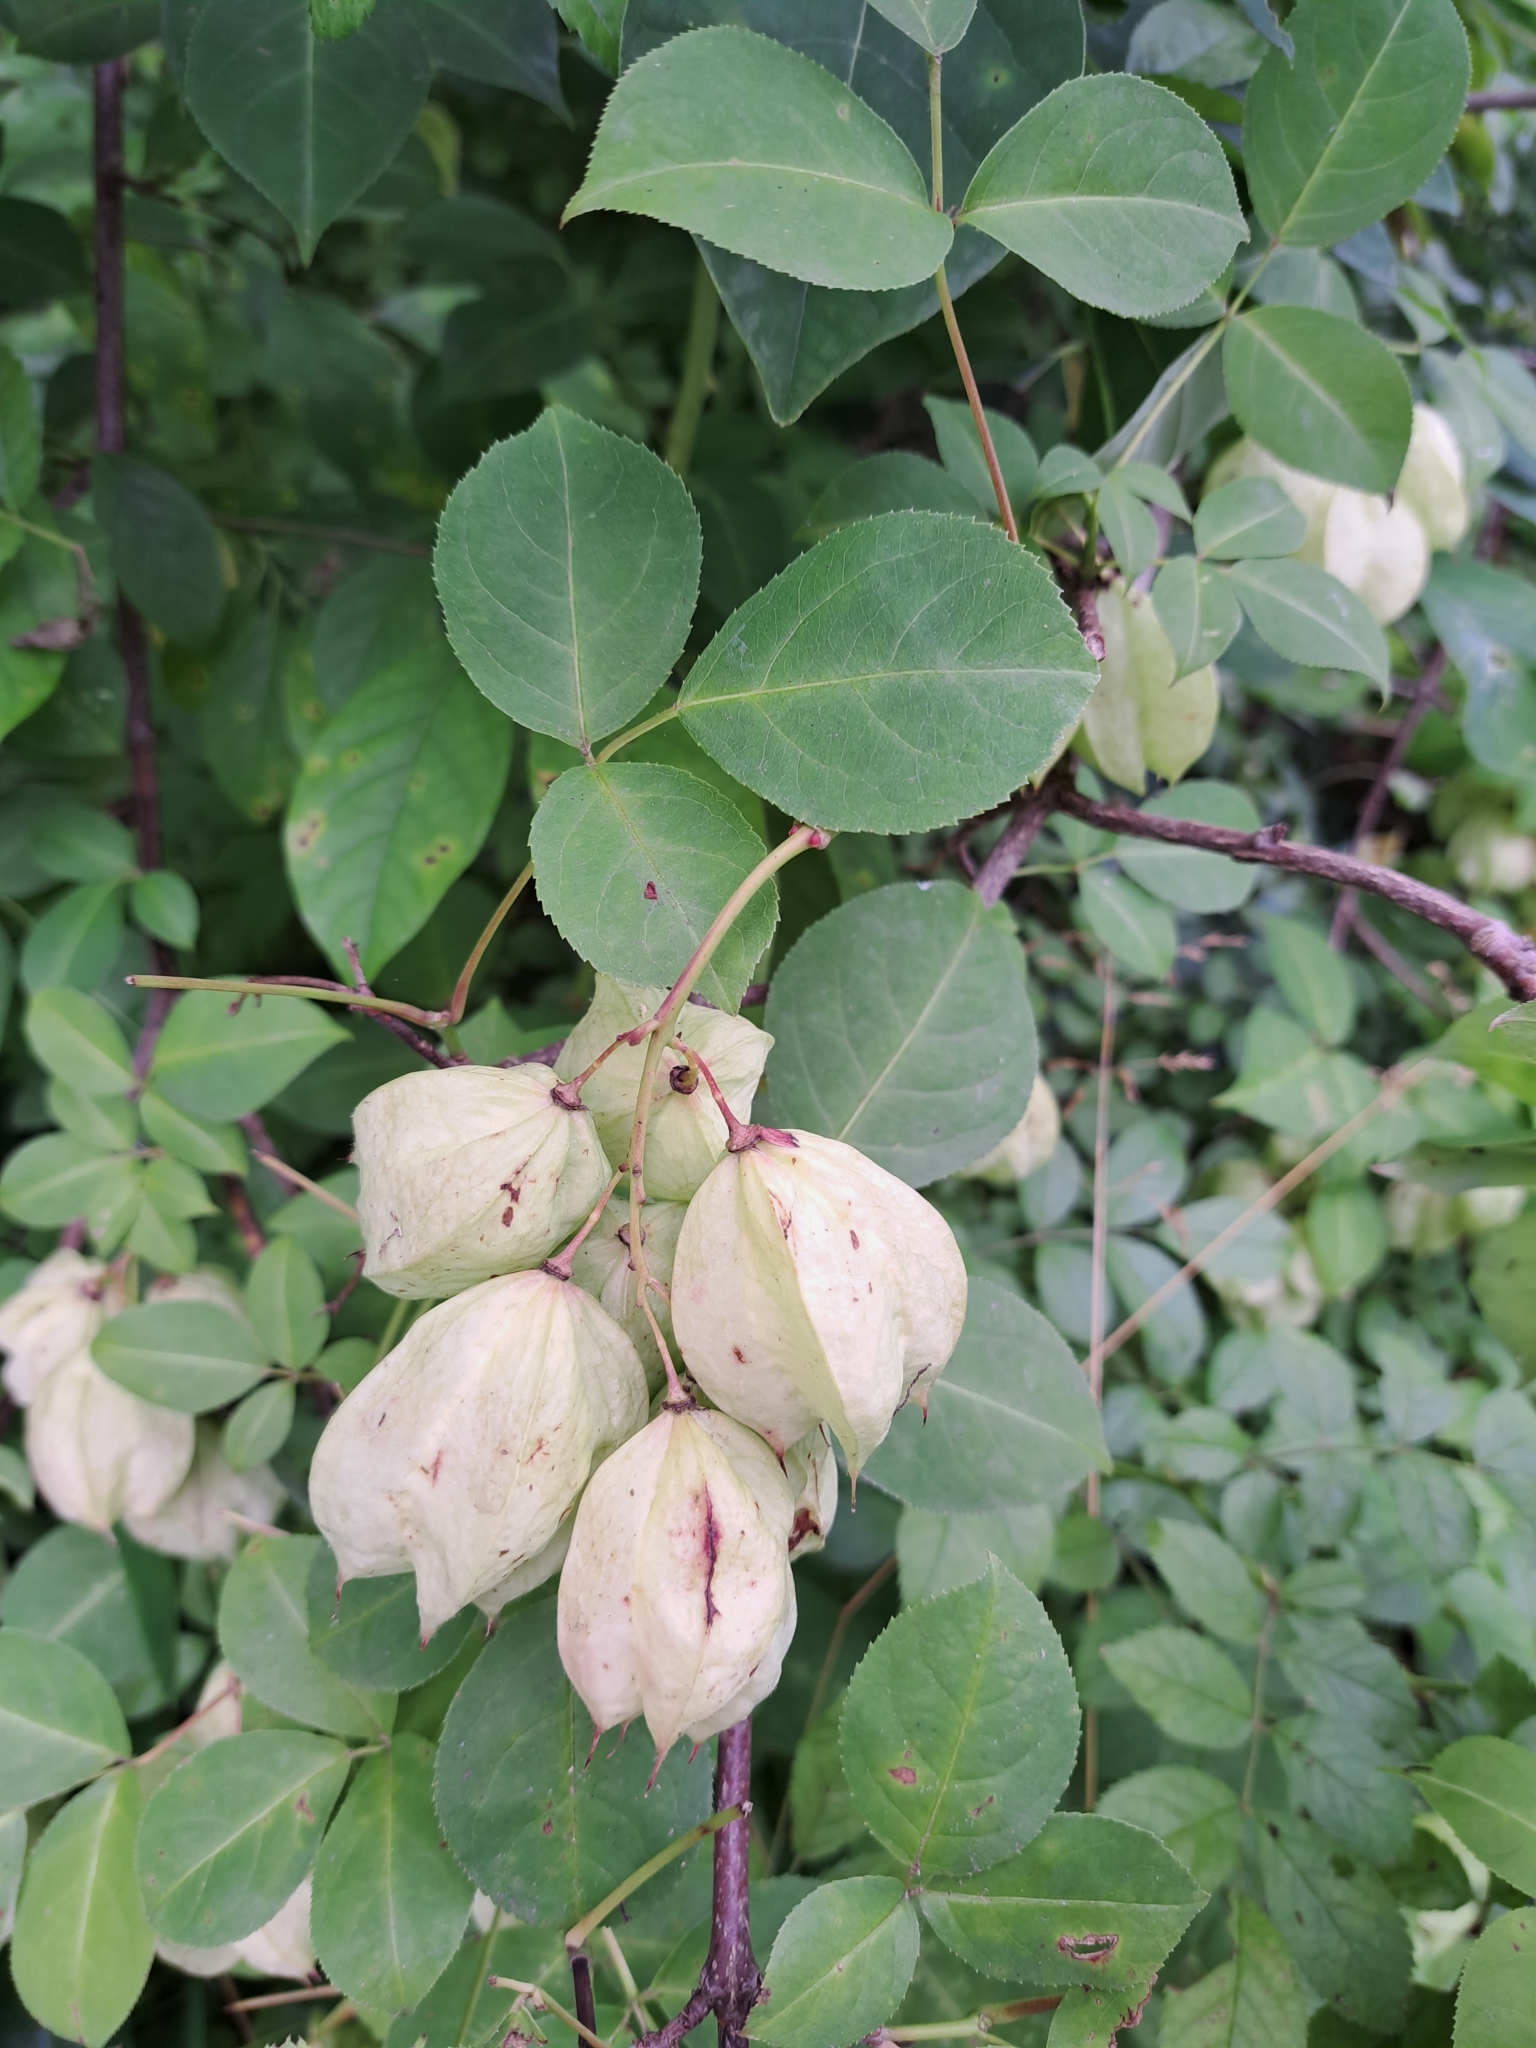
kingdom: Plantae
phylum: Tracheophyta
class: Magnoliopsida
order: Crossosomatales
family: Staphyleaceae
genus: Staphylea
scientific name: Staphylea trifolia
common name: American bladdernut
